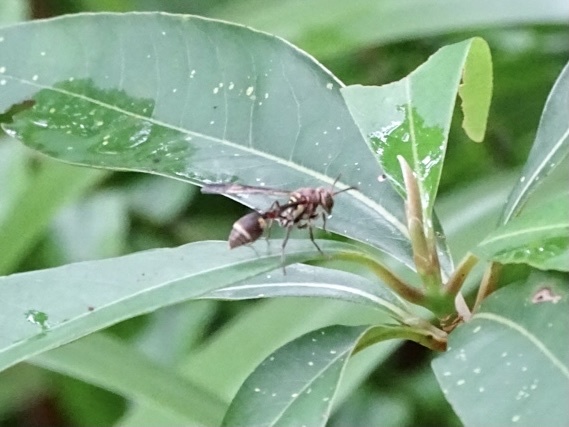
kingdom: Animalia
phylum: Arthropoda
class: Insecta
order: Hymenoptera
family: Vespidae
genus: Ropalidia
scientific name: Ropalidia stigma
